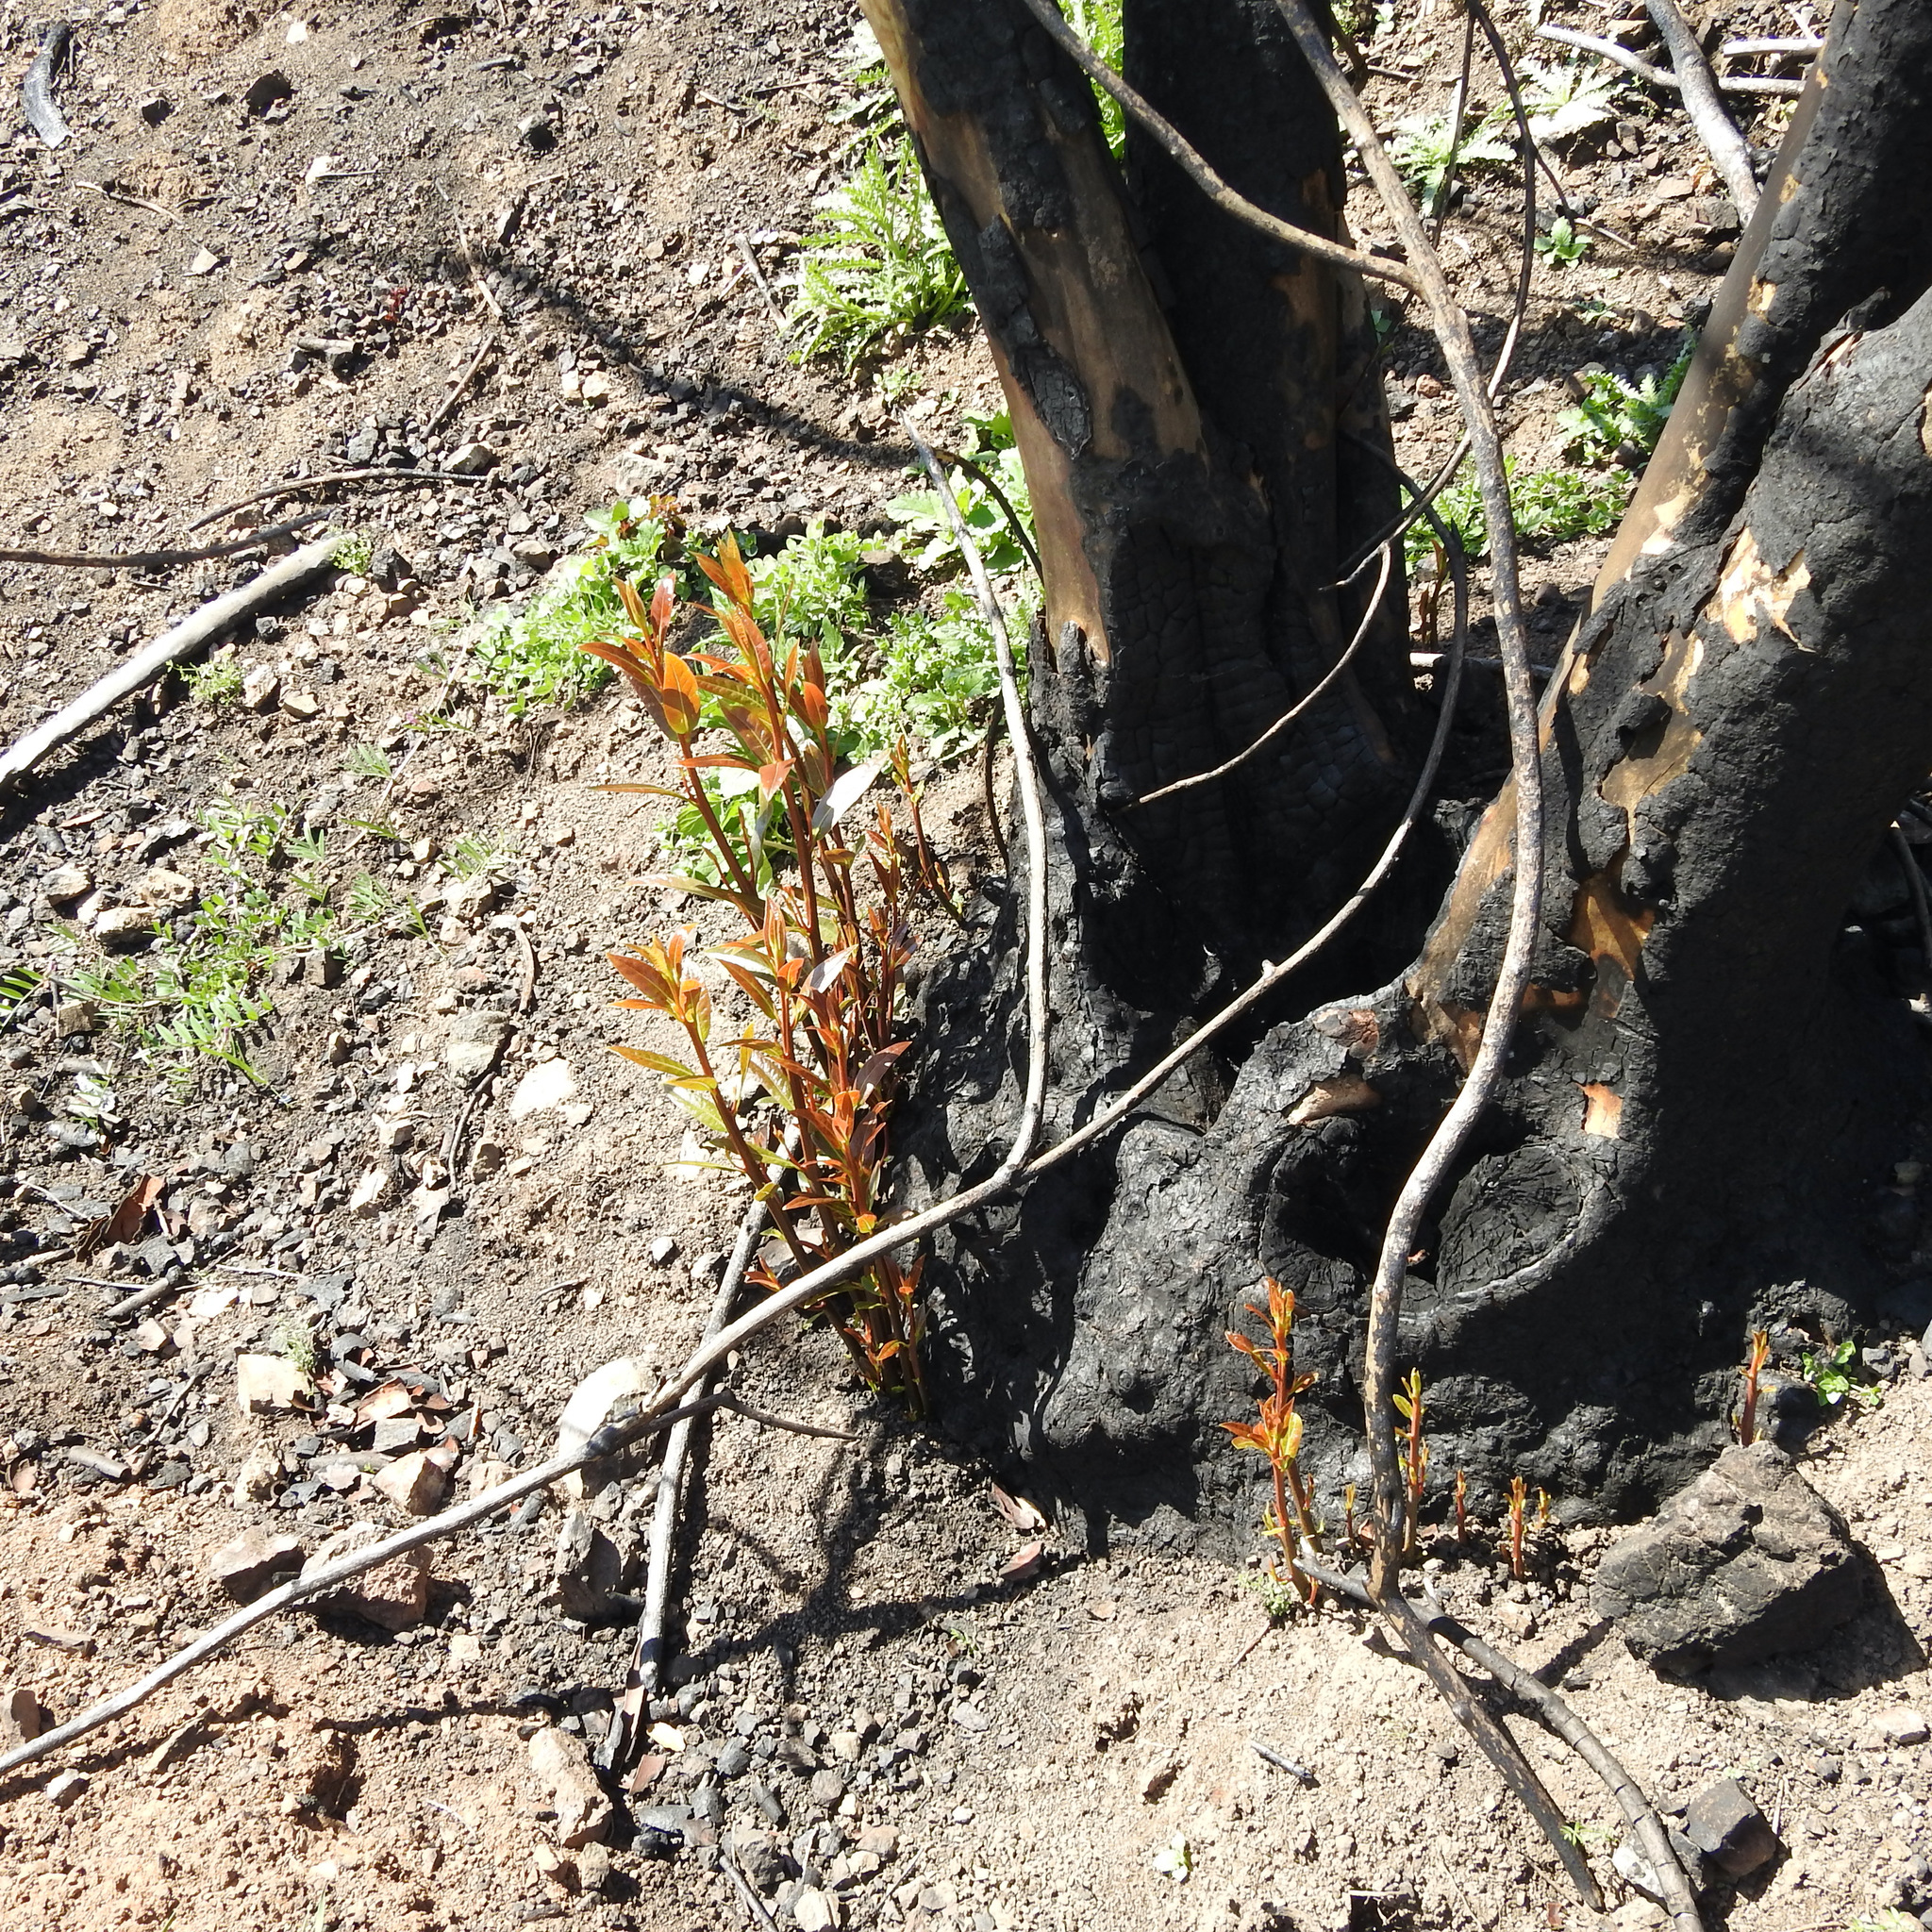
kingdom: Plantae
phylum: Tracheophyta
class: Magnoliopsida
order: Laurales
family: Lauraceae
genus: Umbellularia
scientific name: Umbellularia californica
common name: California bay
